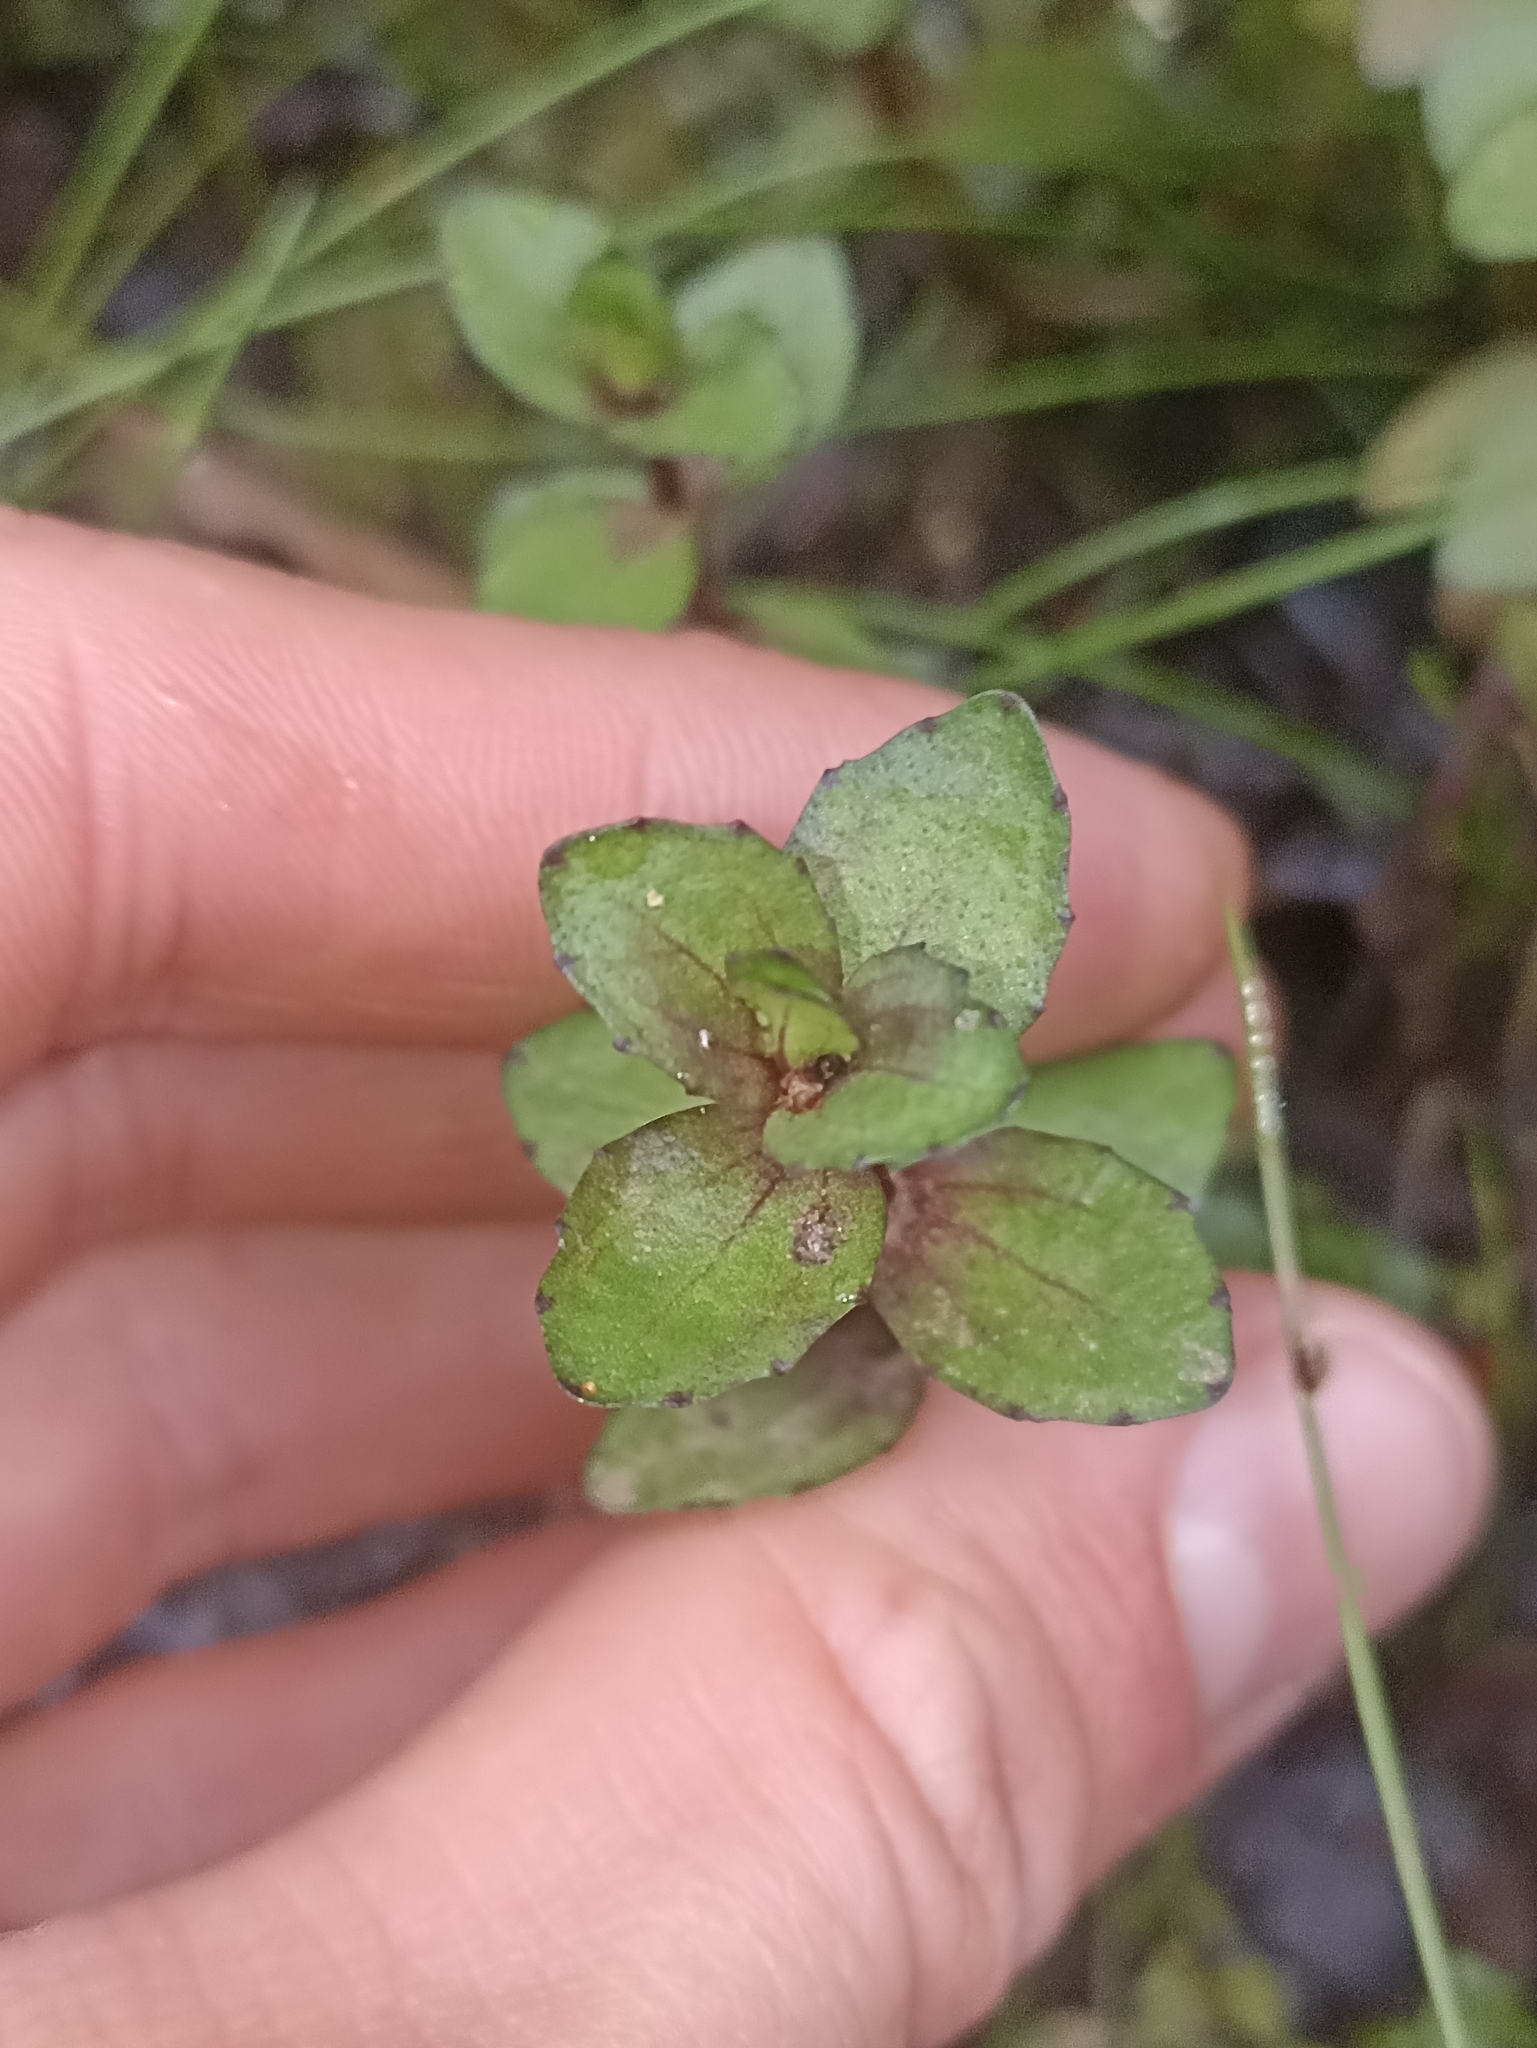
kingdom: Plantae
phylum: Tracheophyta
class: Magnoliopsida
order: Lamiales
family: Plantaginaceae
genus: Gratiola
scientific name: Gratiola sexdentata
